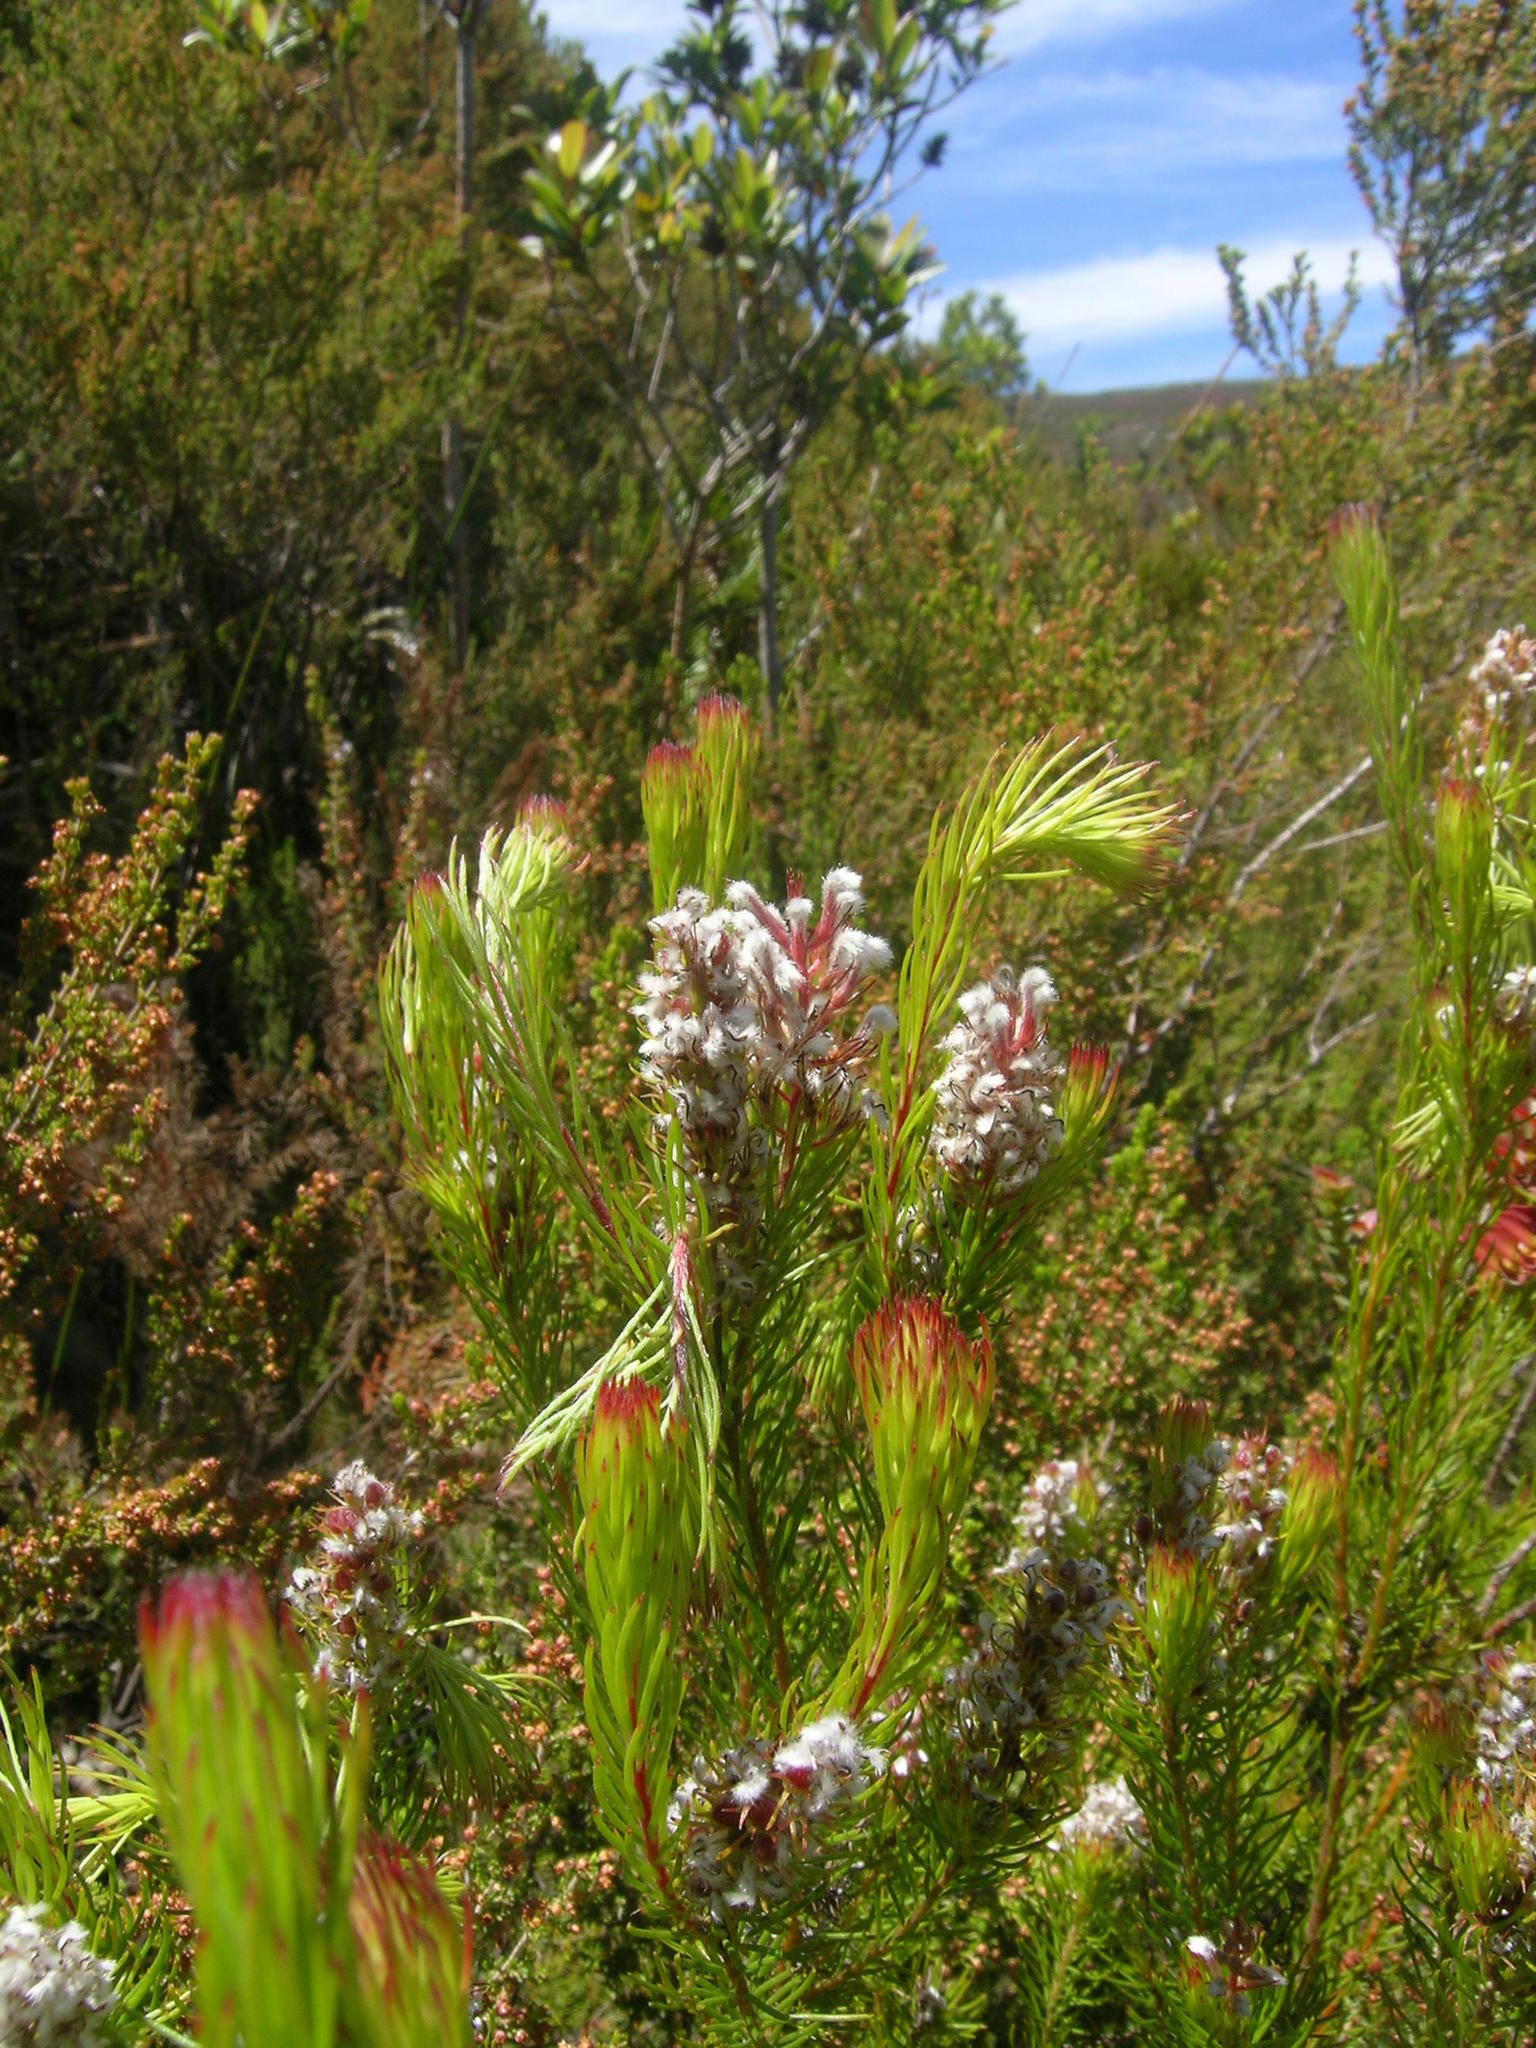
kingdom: Plantae
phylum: Tracheophyta
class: Magnoliopsida
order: Proteales
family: Proteaceae
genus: Spatalla
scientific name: Spatalla parilis
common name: Spike spoon
